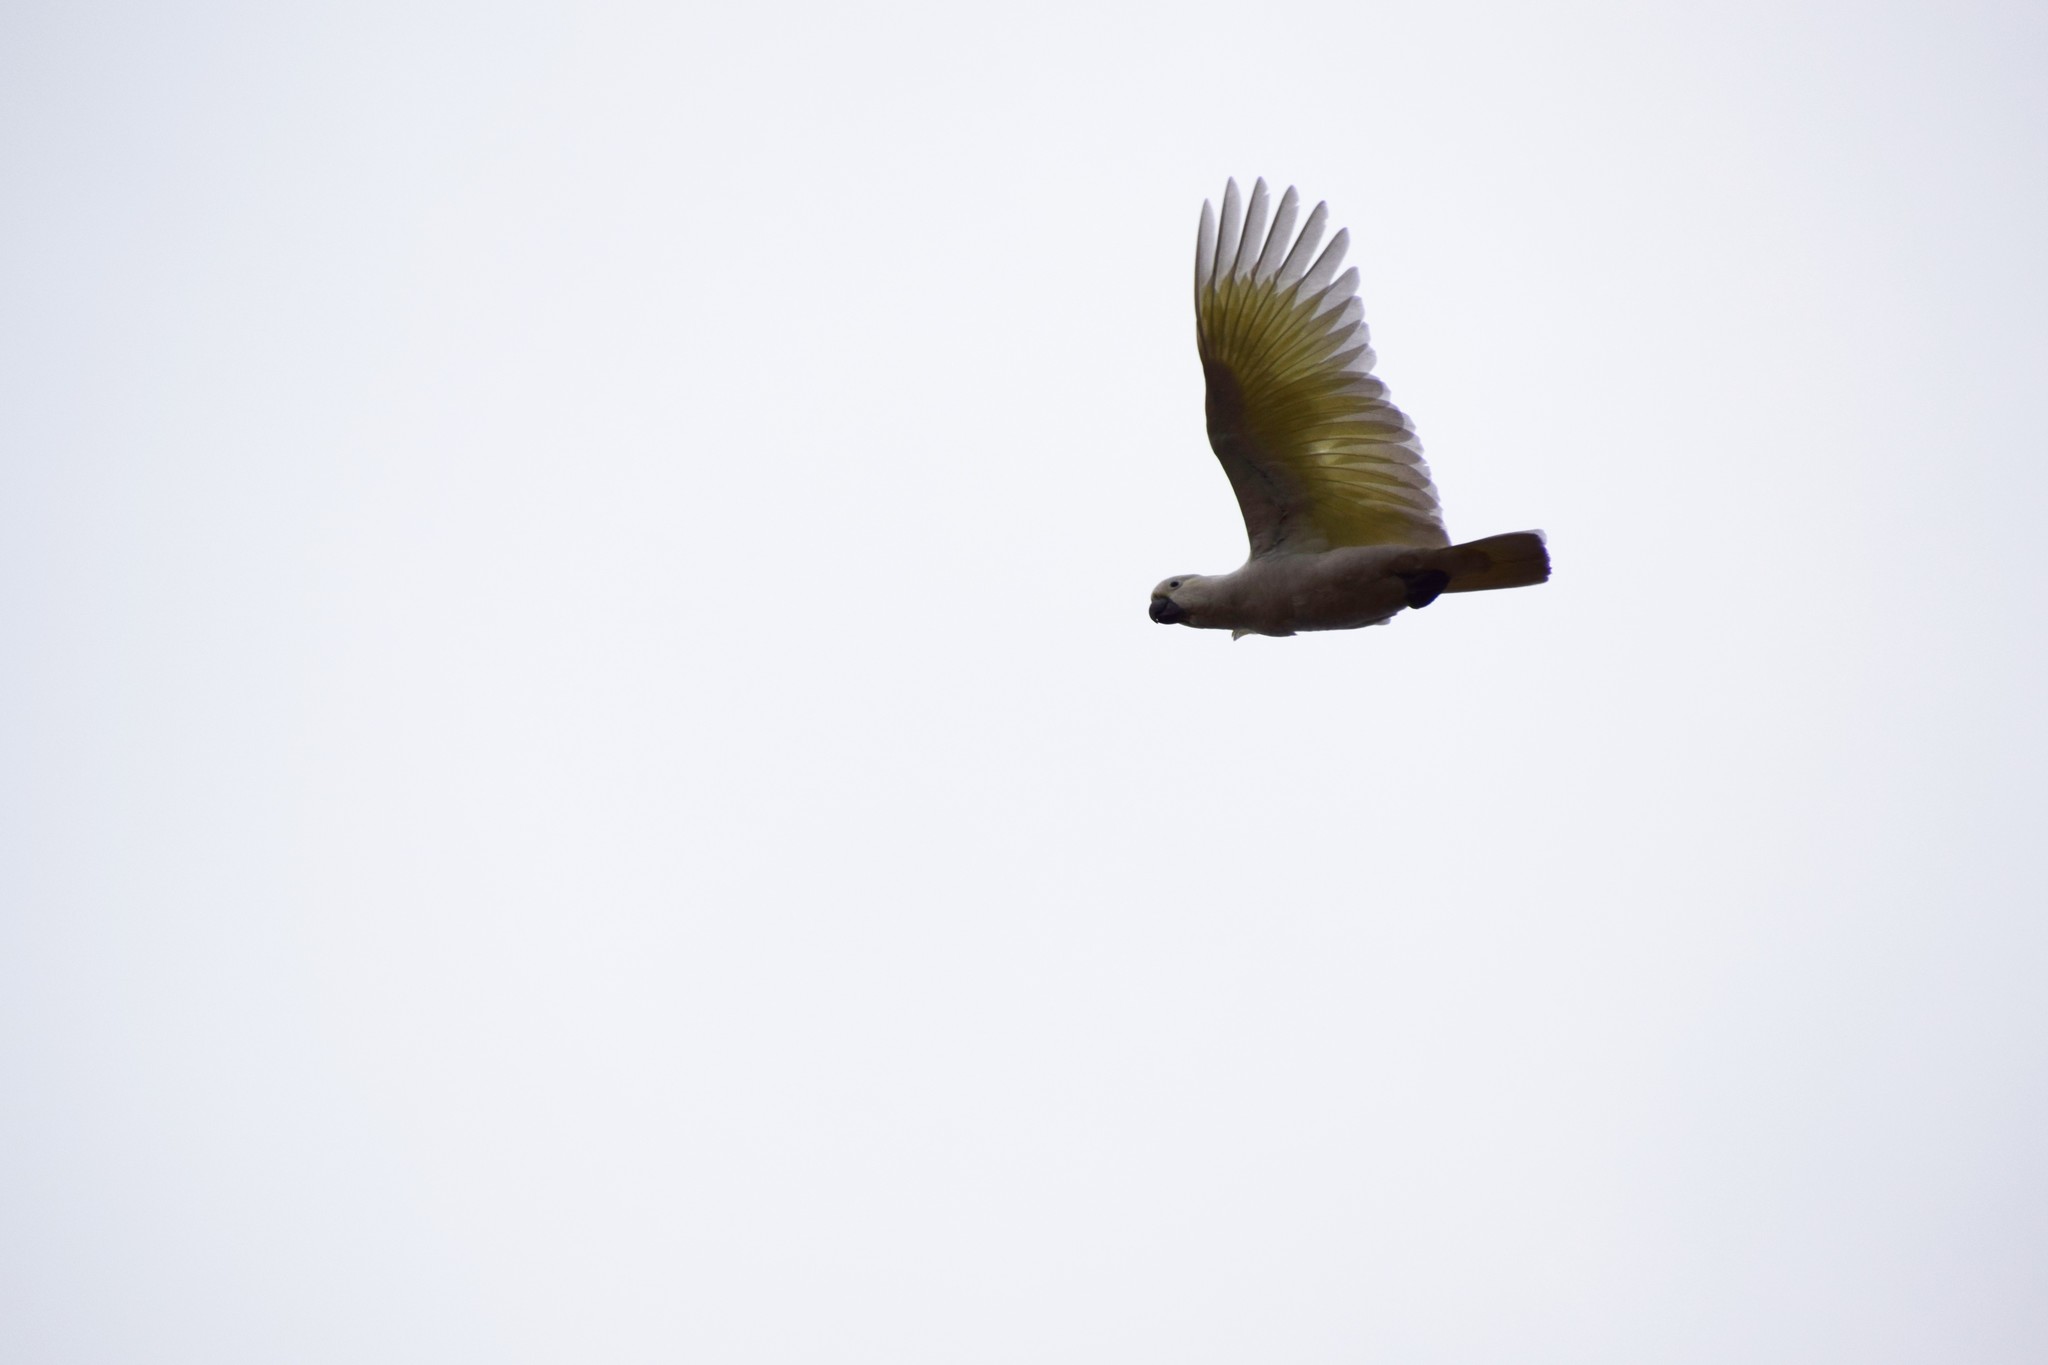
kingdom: Animalia
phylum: Chordata
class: Aves
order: Psittaciformes
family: Psittacidae
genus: Cacatua
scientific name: Cacatua galerita
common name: Sulphur-crested cockatoo
